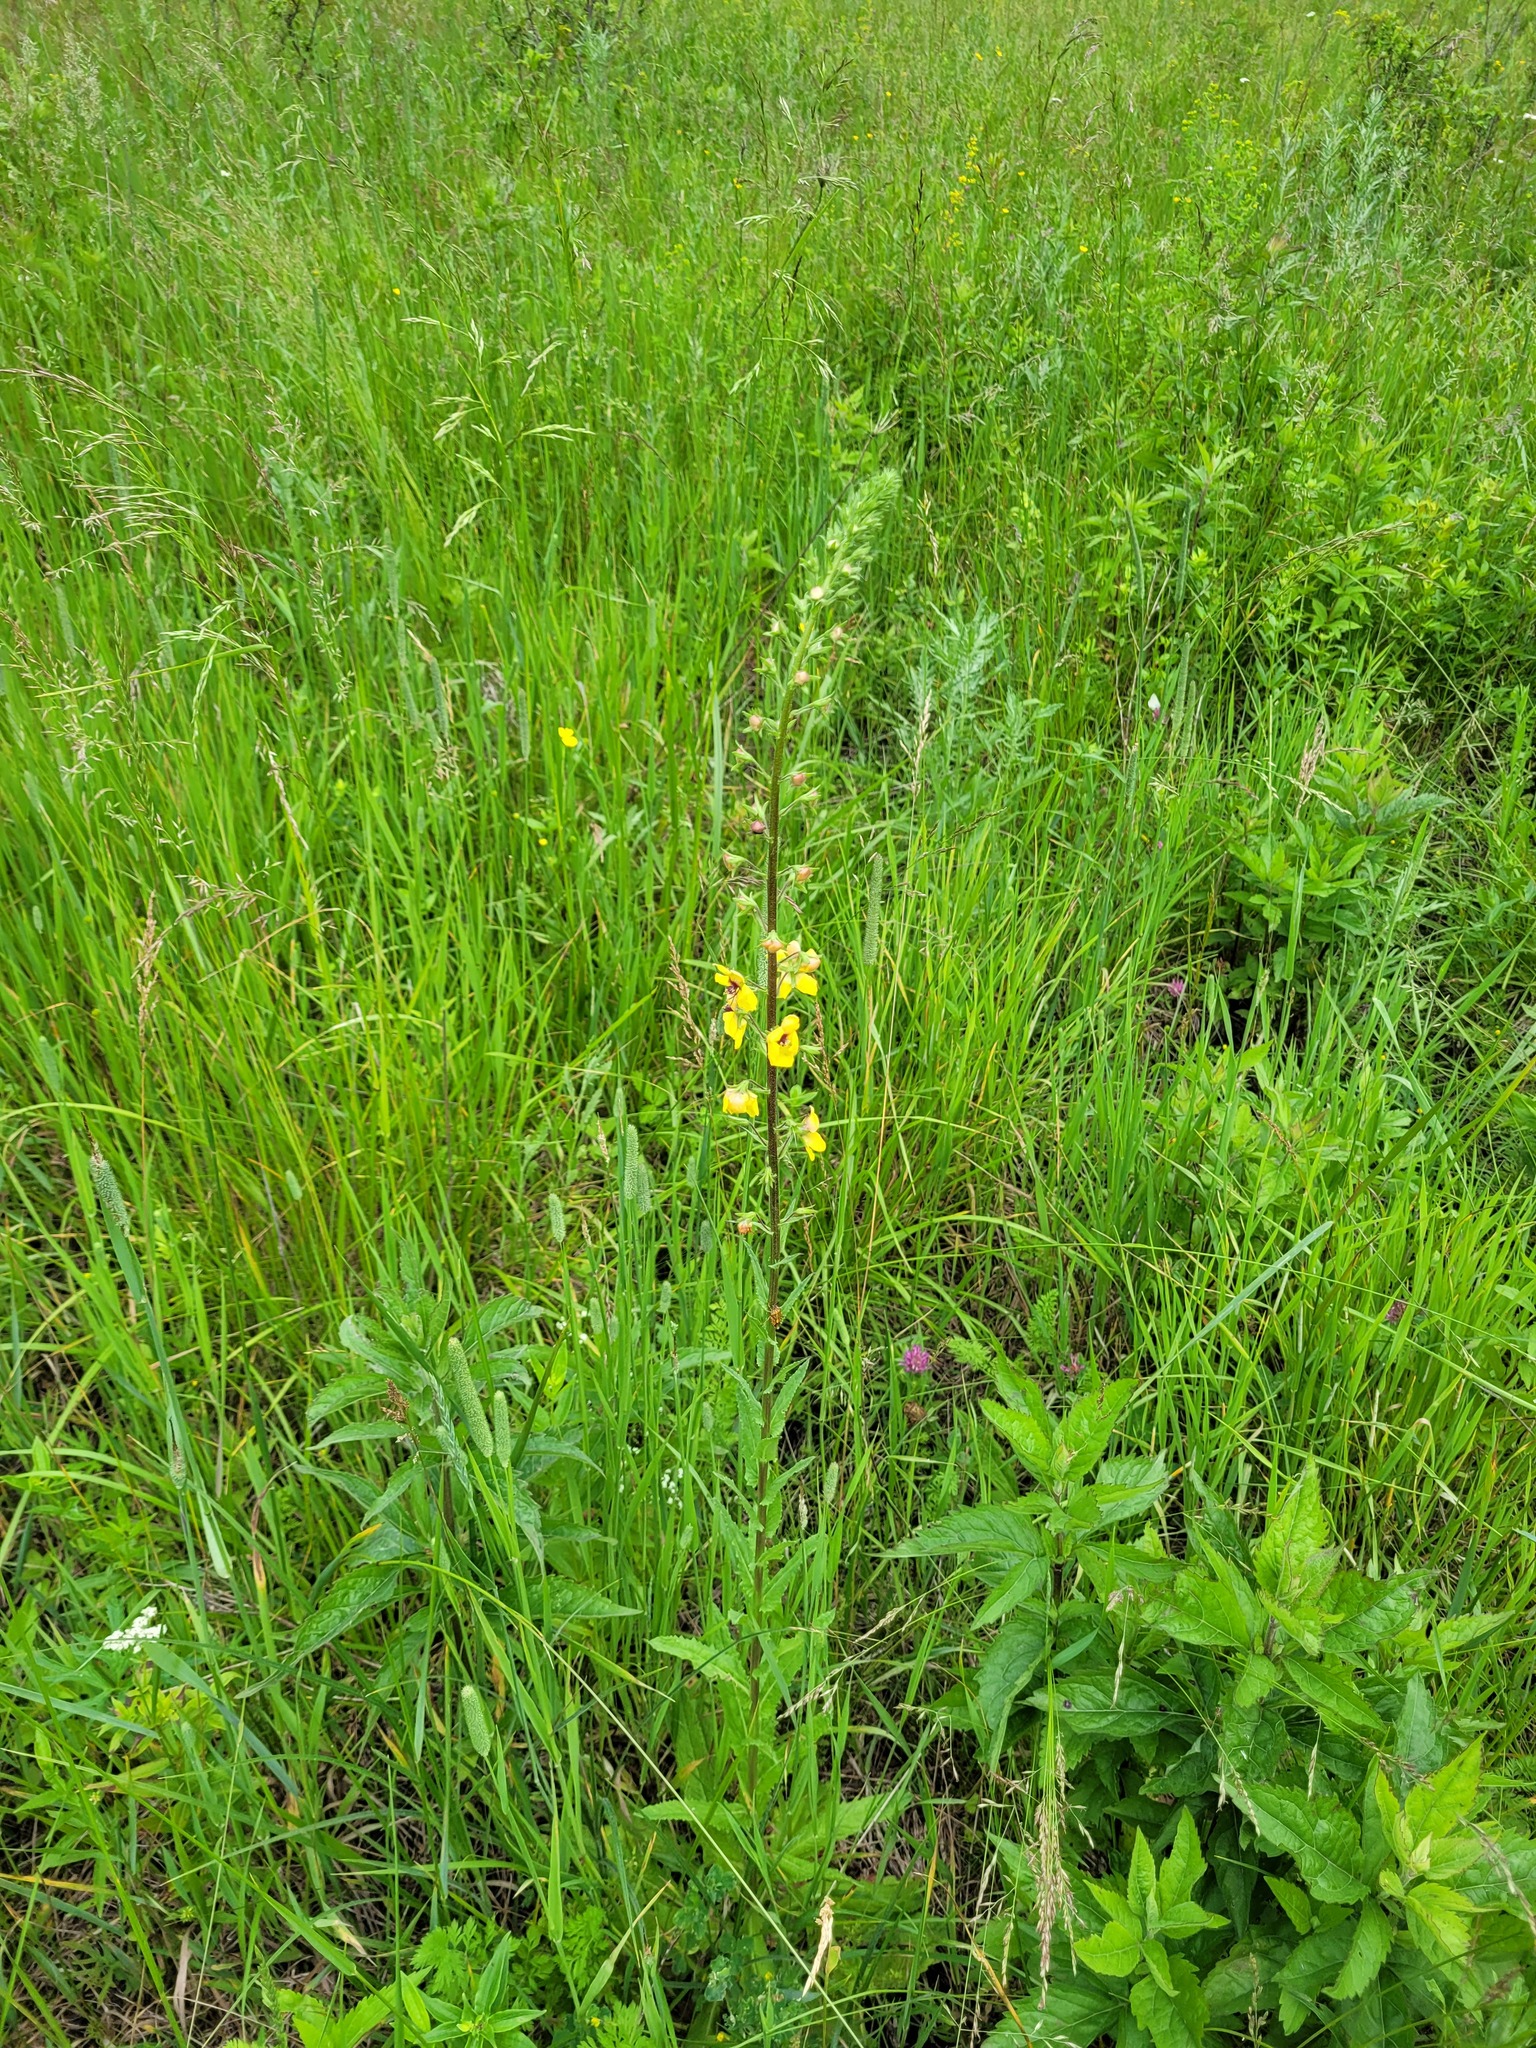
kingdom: Plantae
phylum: Tracheophyta
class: Magnoliopsida
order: Lamiales
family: Scrophulariaceae
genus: Verbascum
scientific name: Verbascum blattaria
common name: Moth mullein
